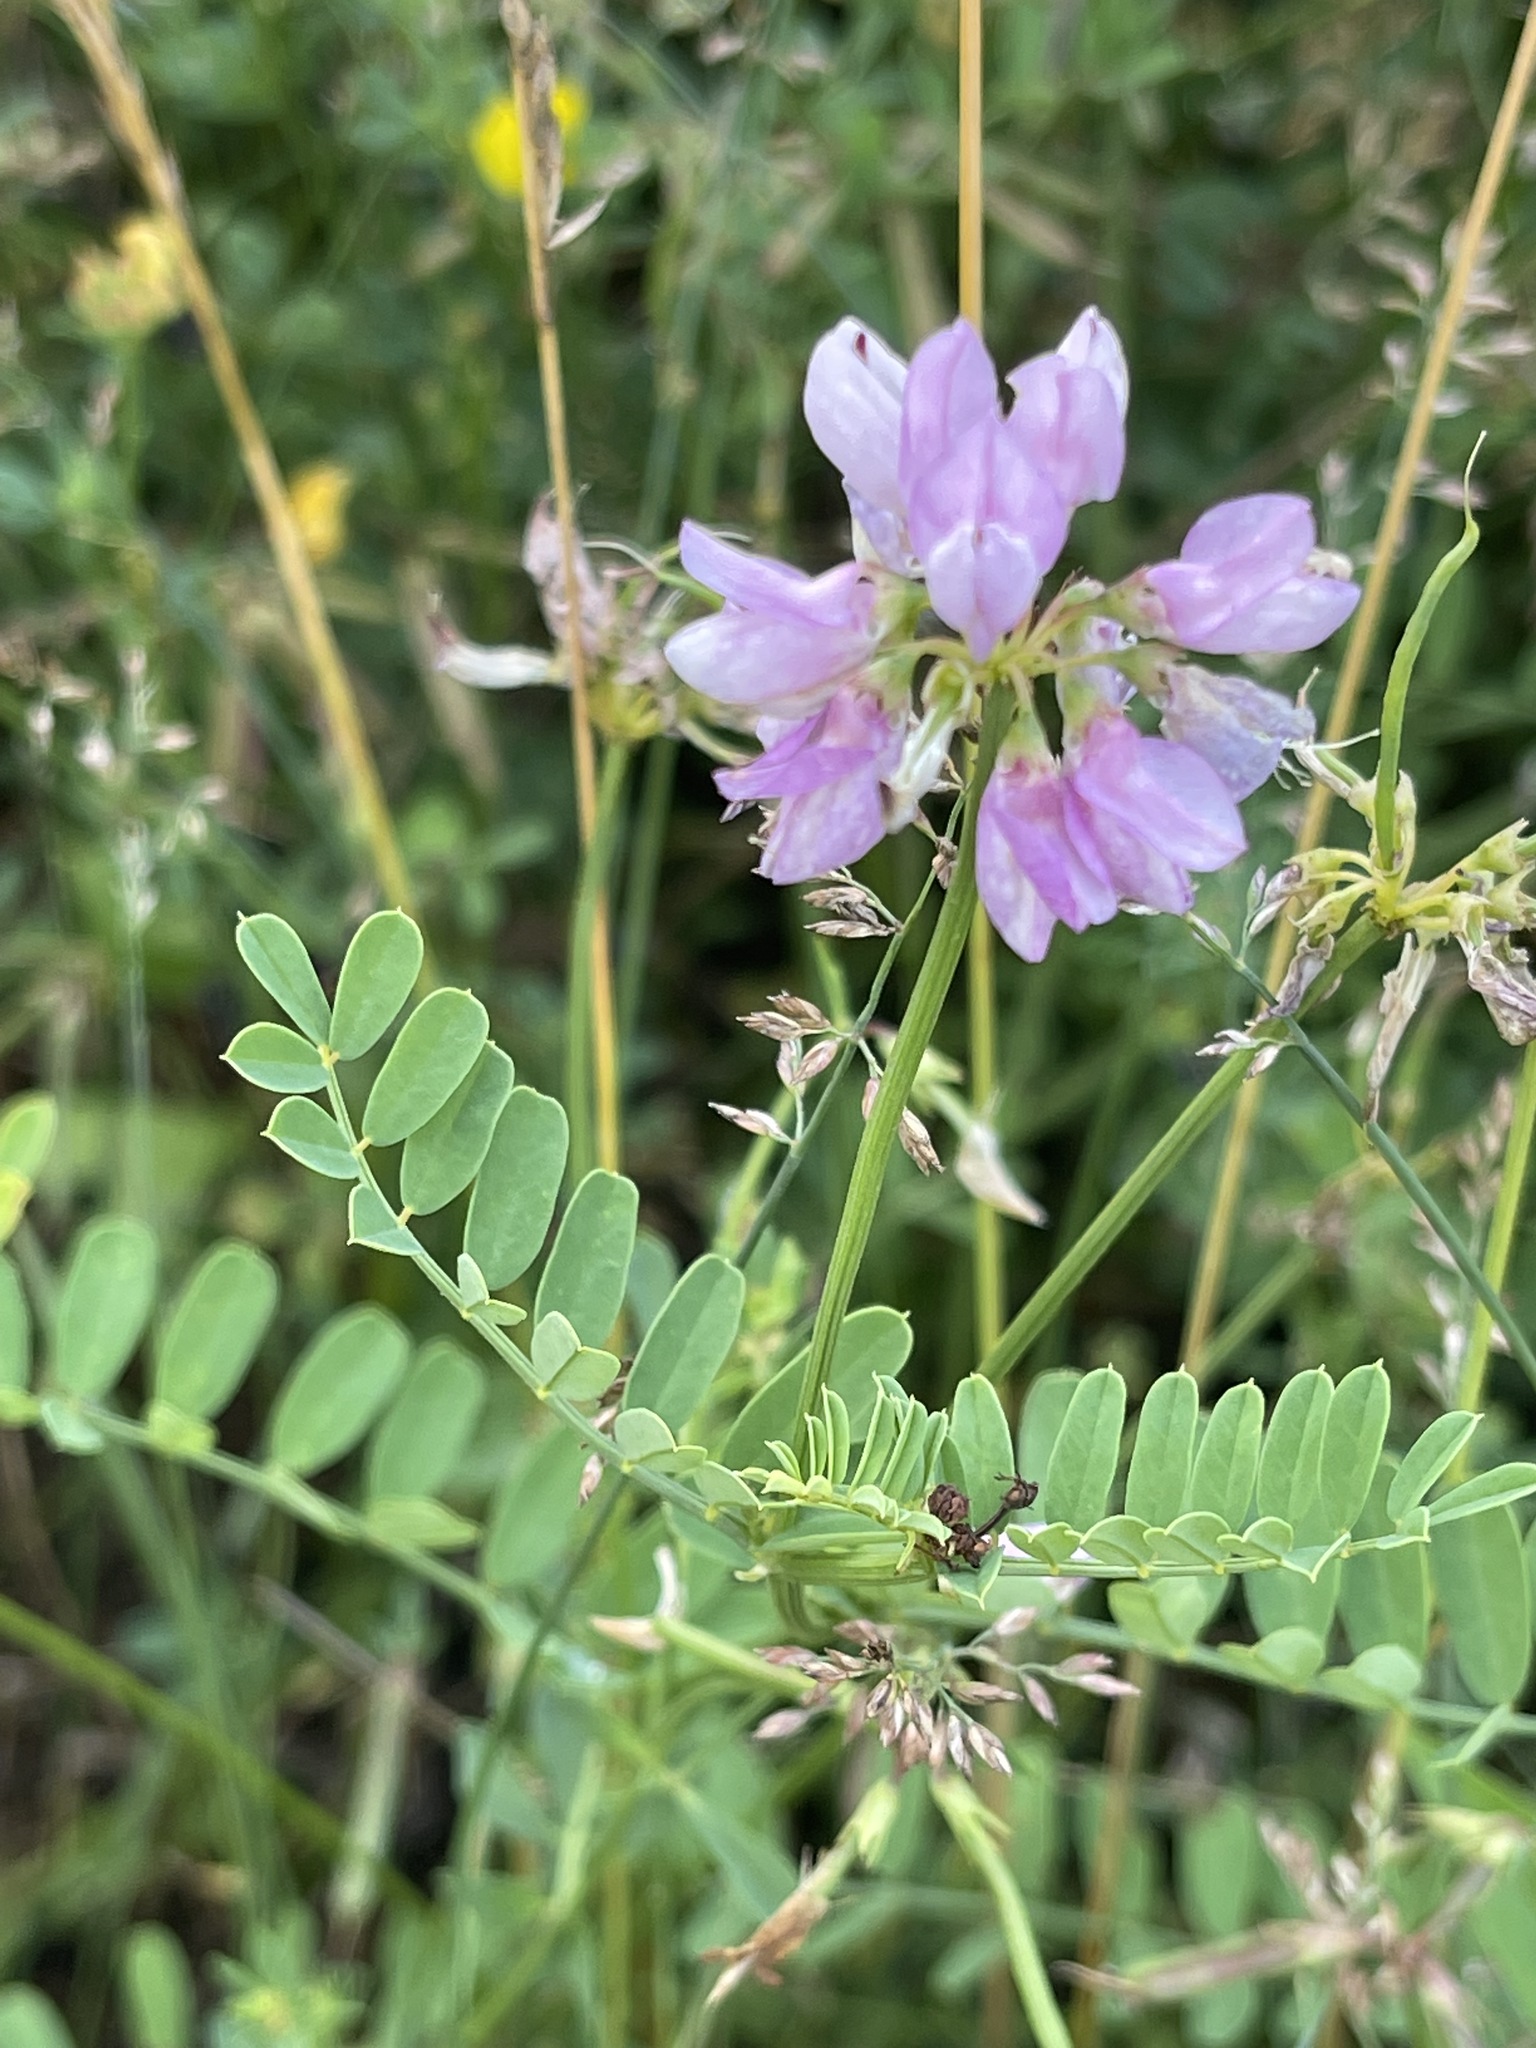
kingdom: Plantae
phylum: Tracheophyta
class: Magnoliopsida
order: Fabales
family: Fabaceae
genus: Coronilla
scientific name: Coronilla varia
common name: Crownvetch
